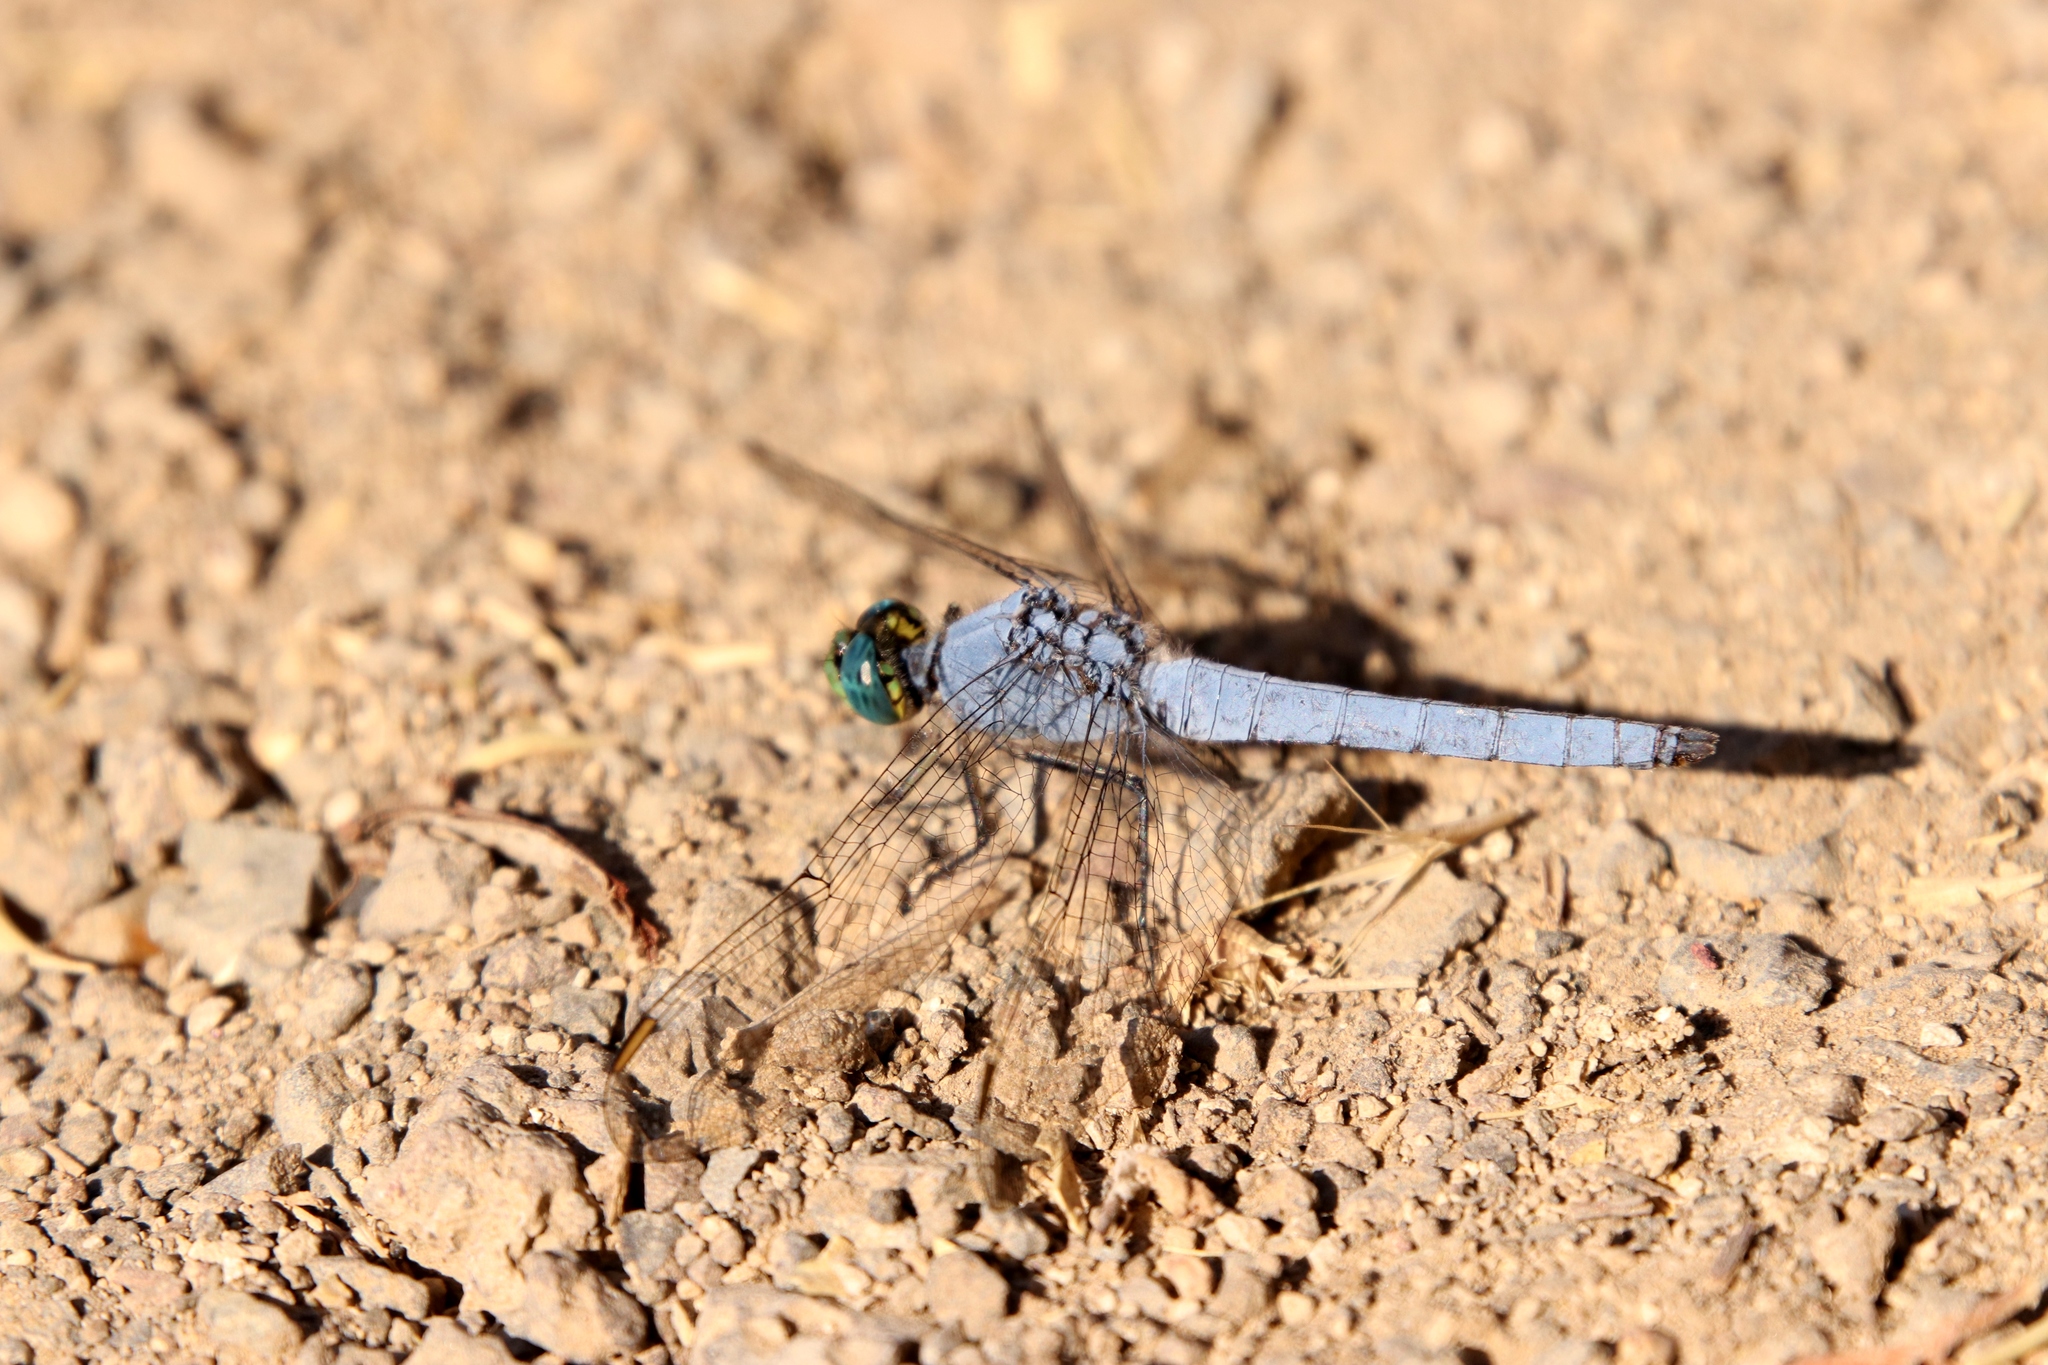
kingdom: Animalia
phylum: Arthropoda
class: Insecta
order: Odonata
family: Libellulidae
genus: Erythemis
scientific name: Erythemis collocata
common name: Western pondhawk
